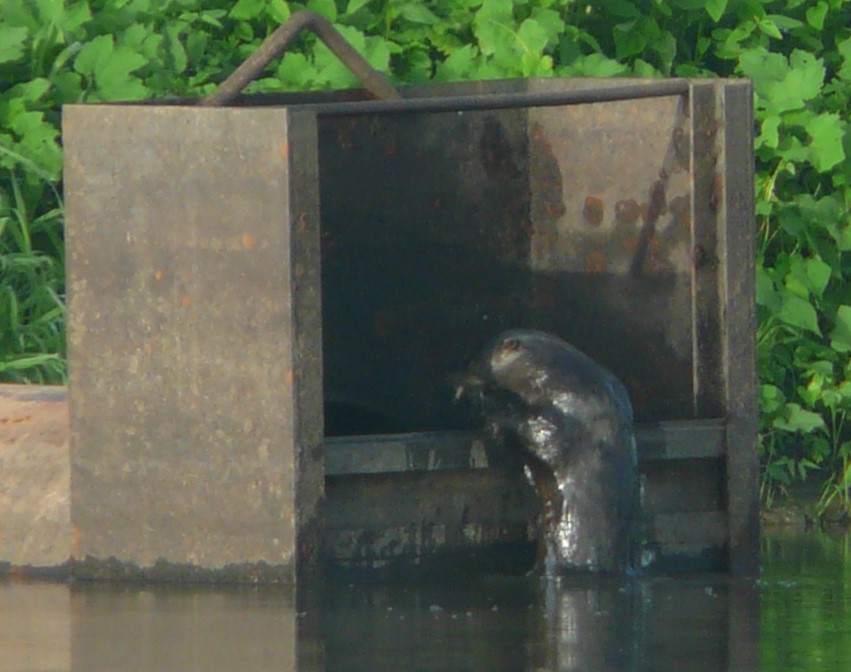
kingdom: Animalia
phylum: Chordata
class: Mammalia
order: Carnivora
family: Mustelidae
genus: Lontra
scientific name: Lontra canadensis
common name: North american river otter
